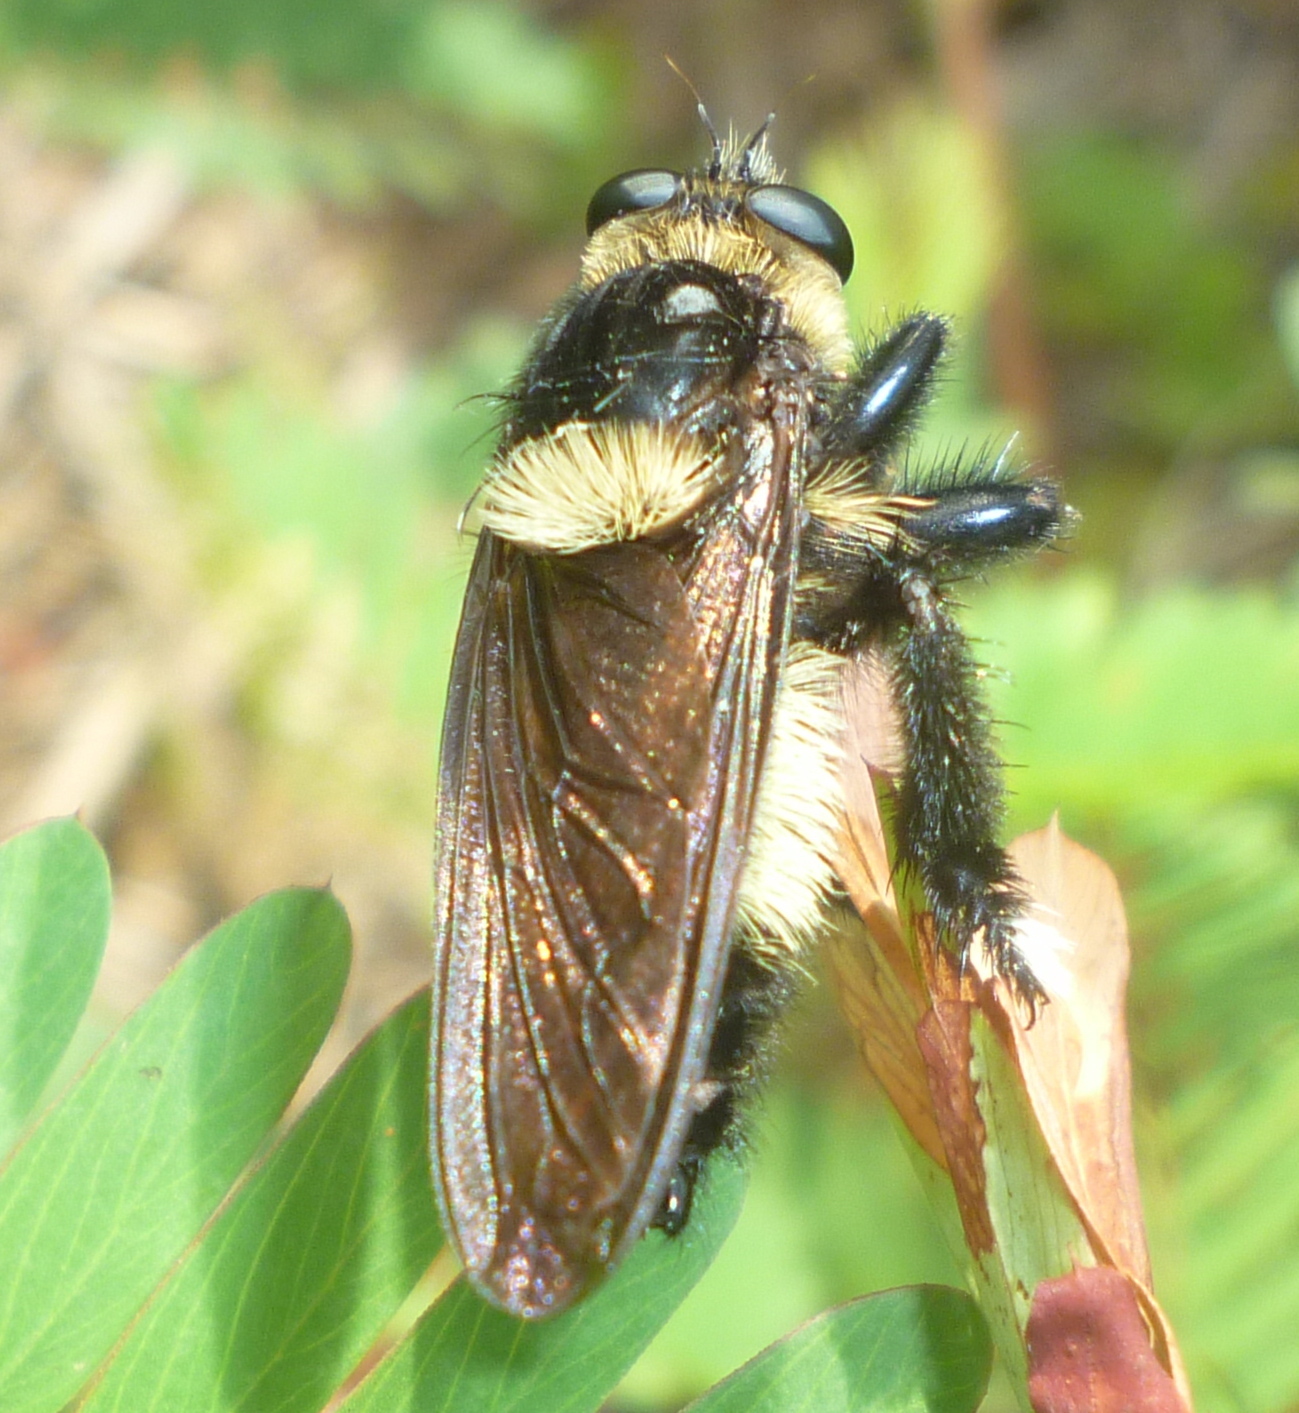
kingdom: Animalia
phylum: Arthropoda
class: Insecta
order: Diptera
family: Asilidae
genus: Mallophora
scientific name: Mallophora orcina
